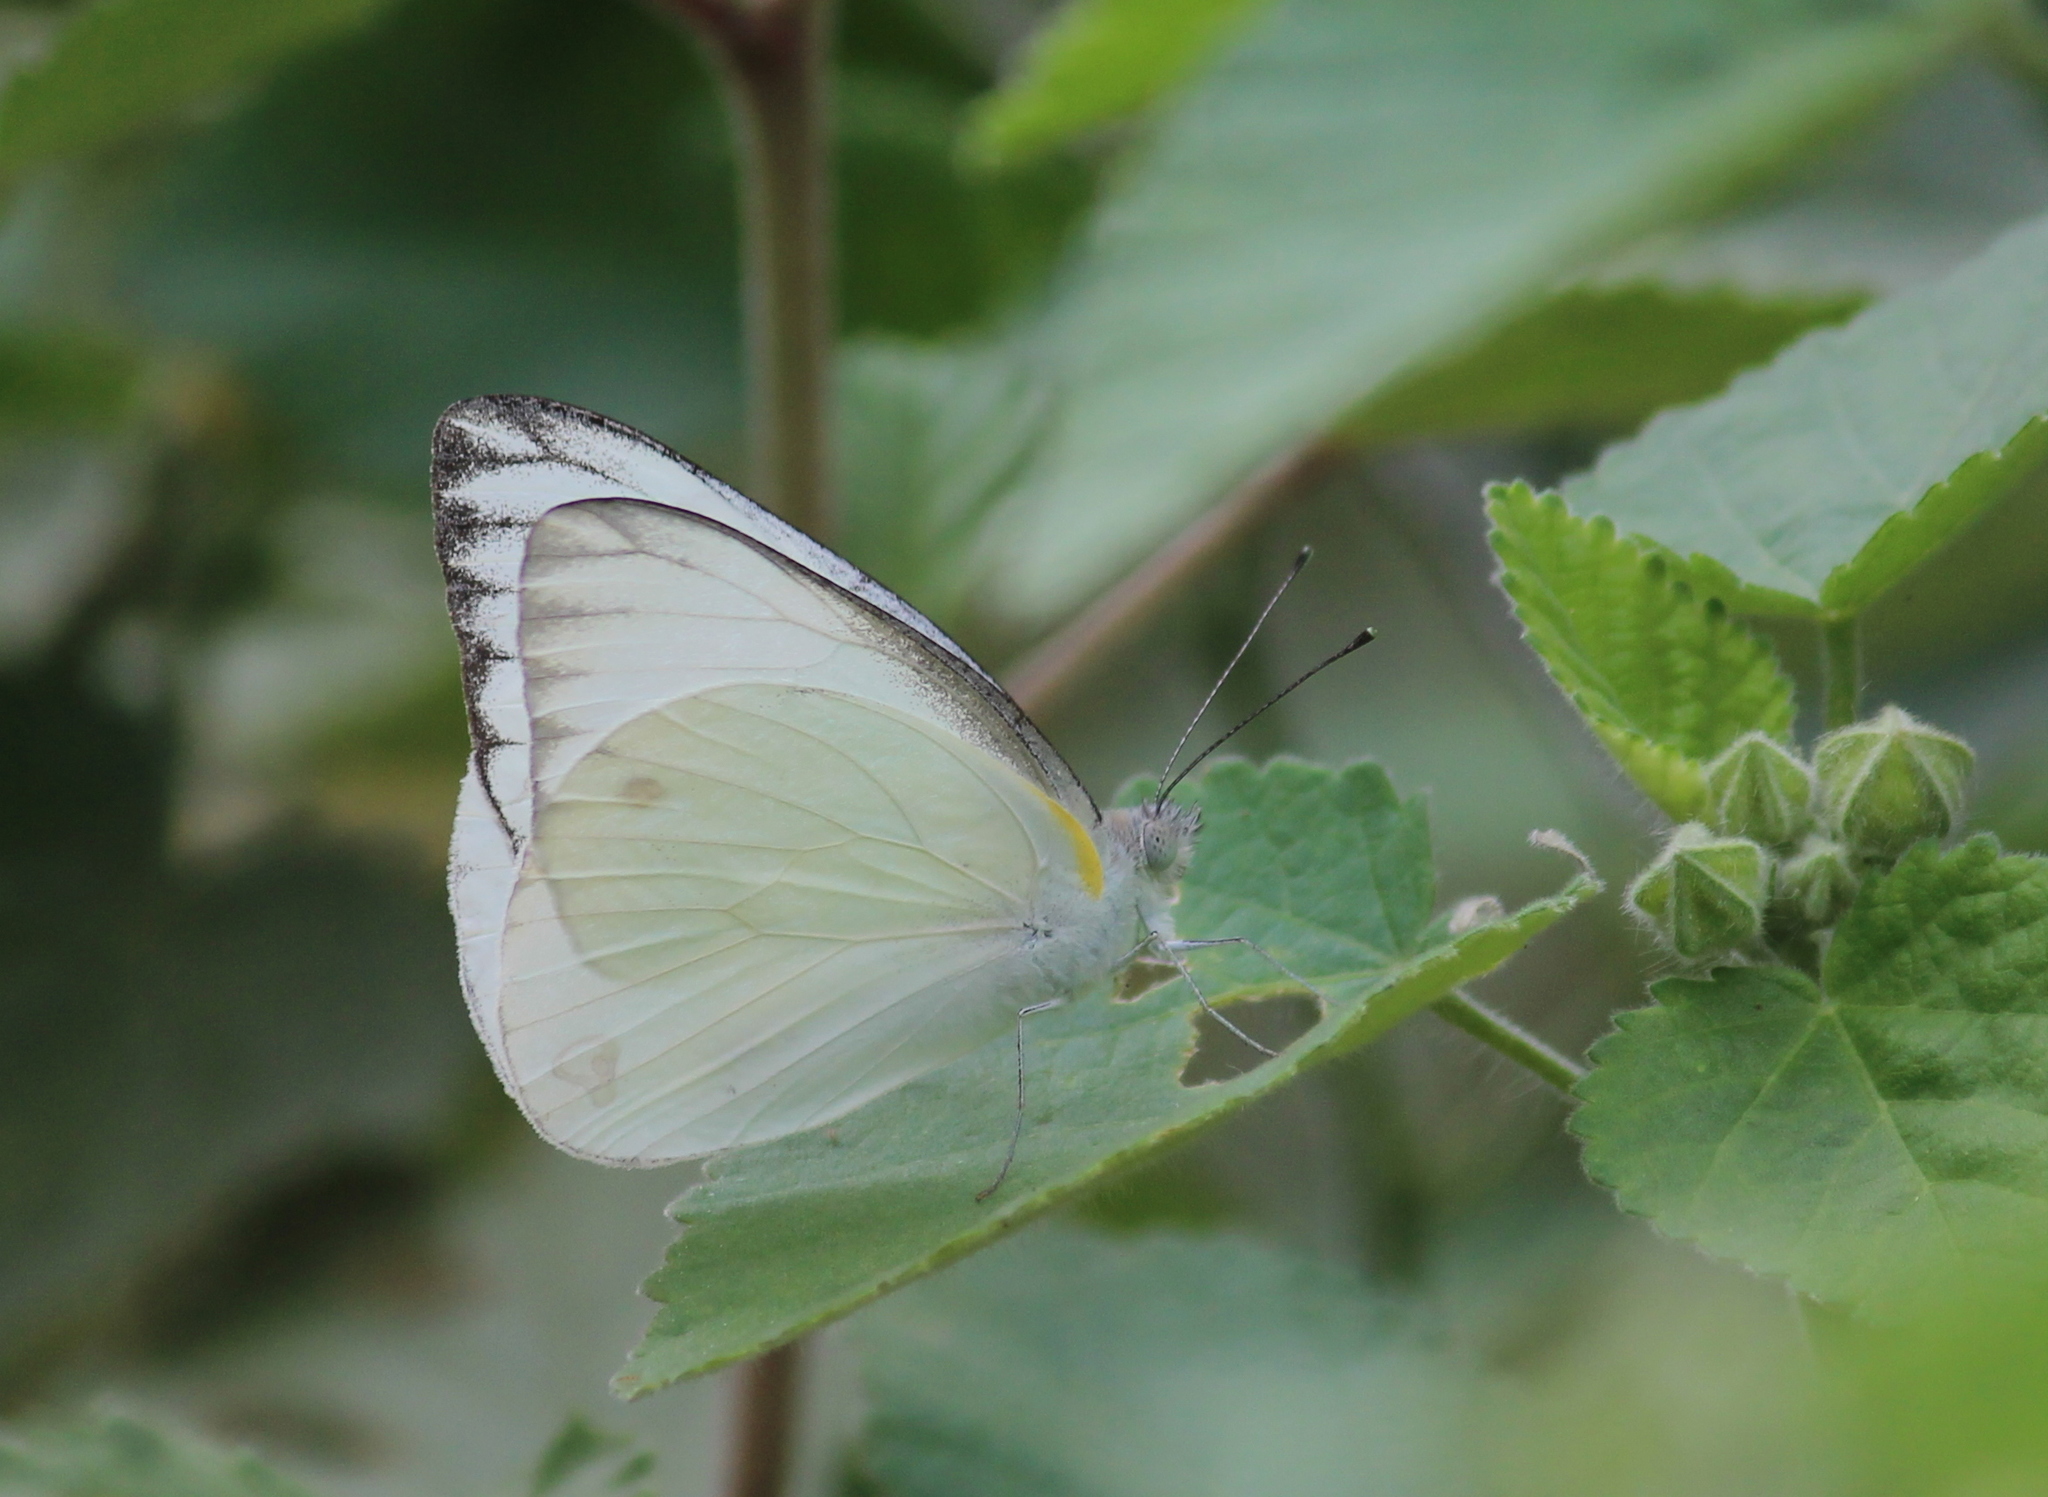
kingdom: Animalia
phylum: Arthropoda
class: Insecta
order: Lepidoptera
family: Pieridae
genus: Appias
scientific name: Appias libythea
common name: Striped albatross
